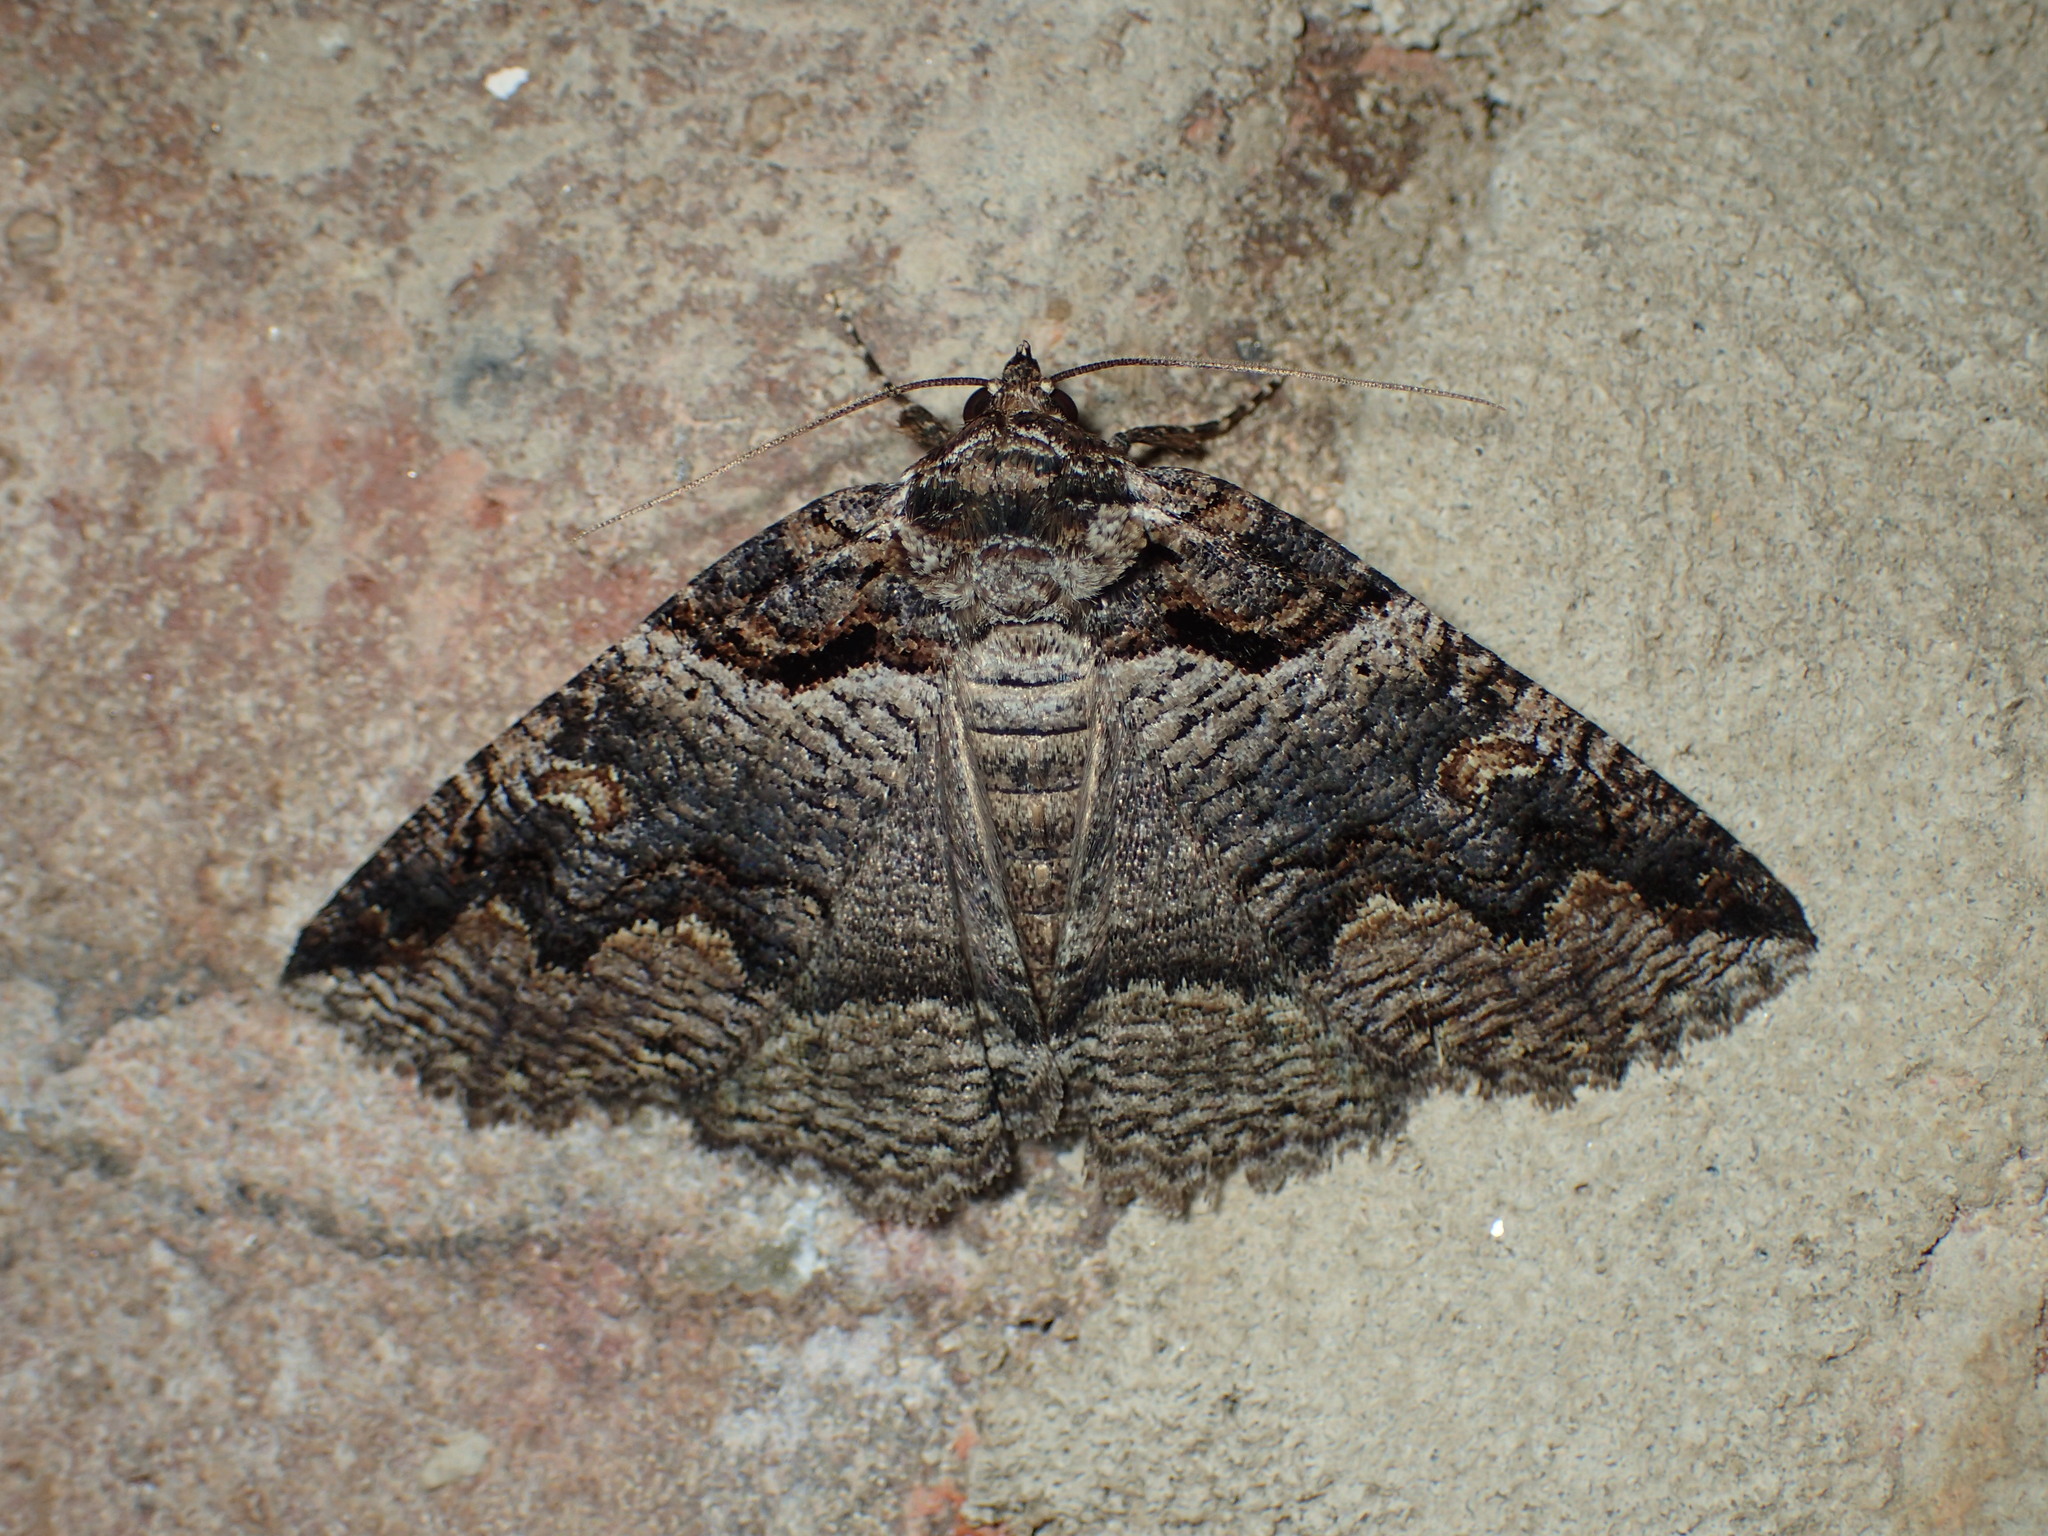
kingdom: Animalia
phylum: Arthropoda
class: Insecta
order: Lepidoptera
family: Erebidae
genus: Zale
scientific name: Zale intenta
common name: Intent zale moth
